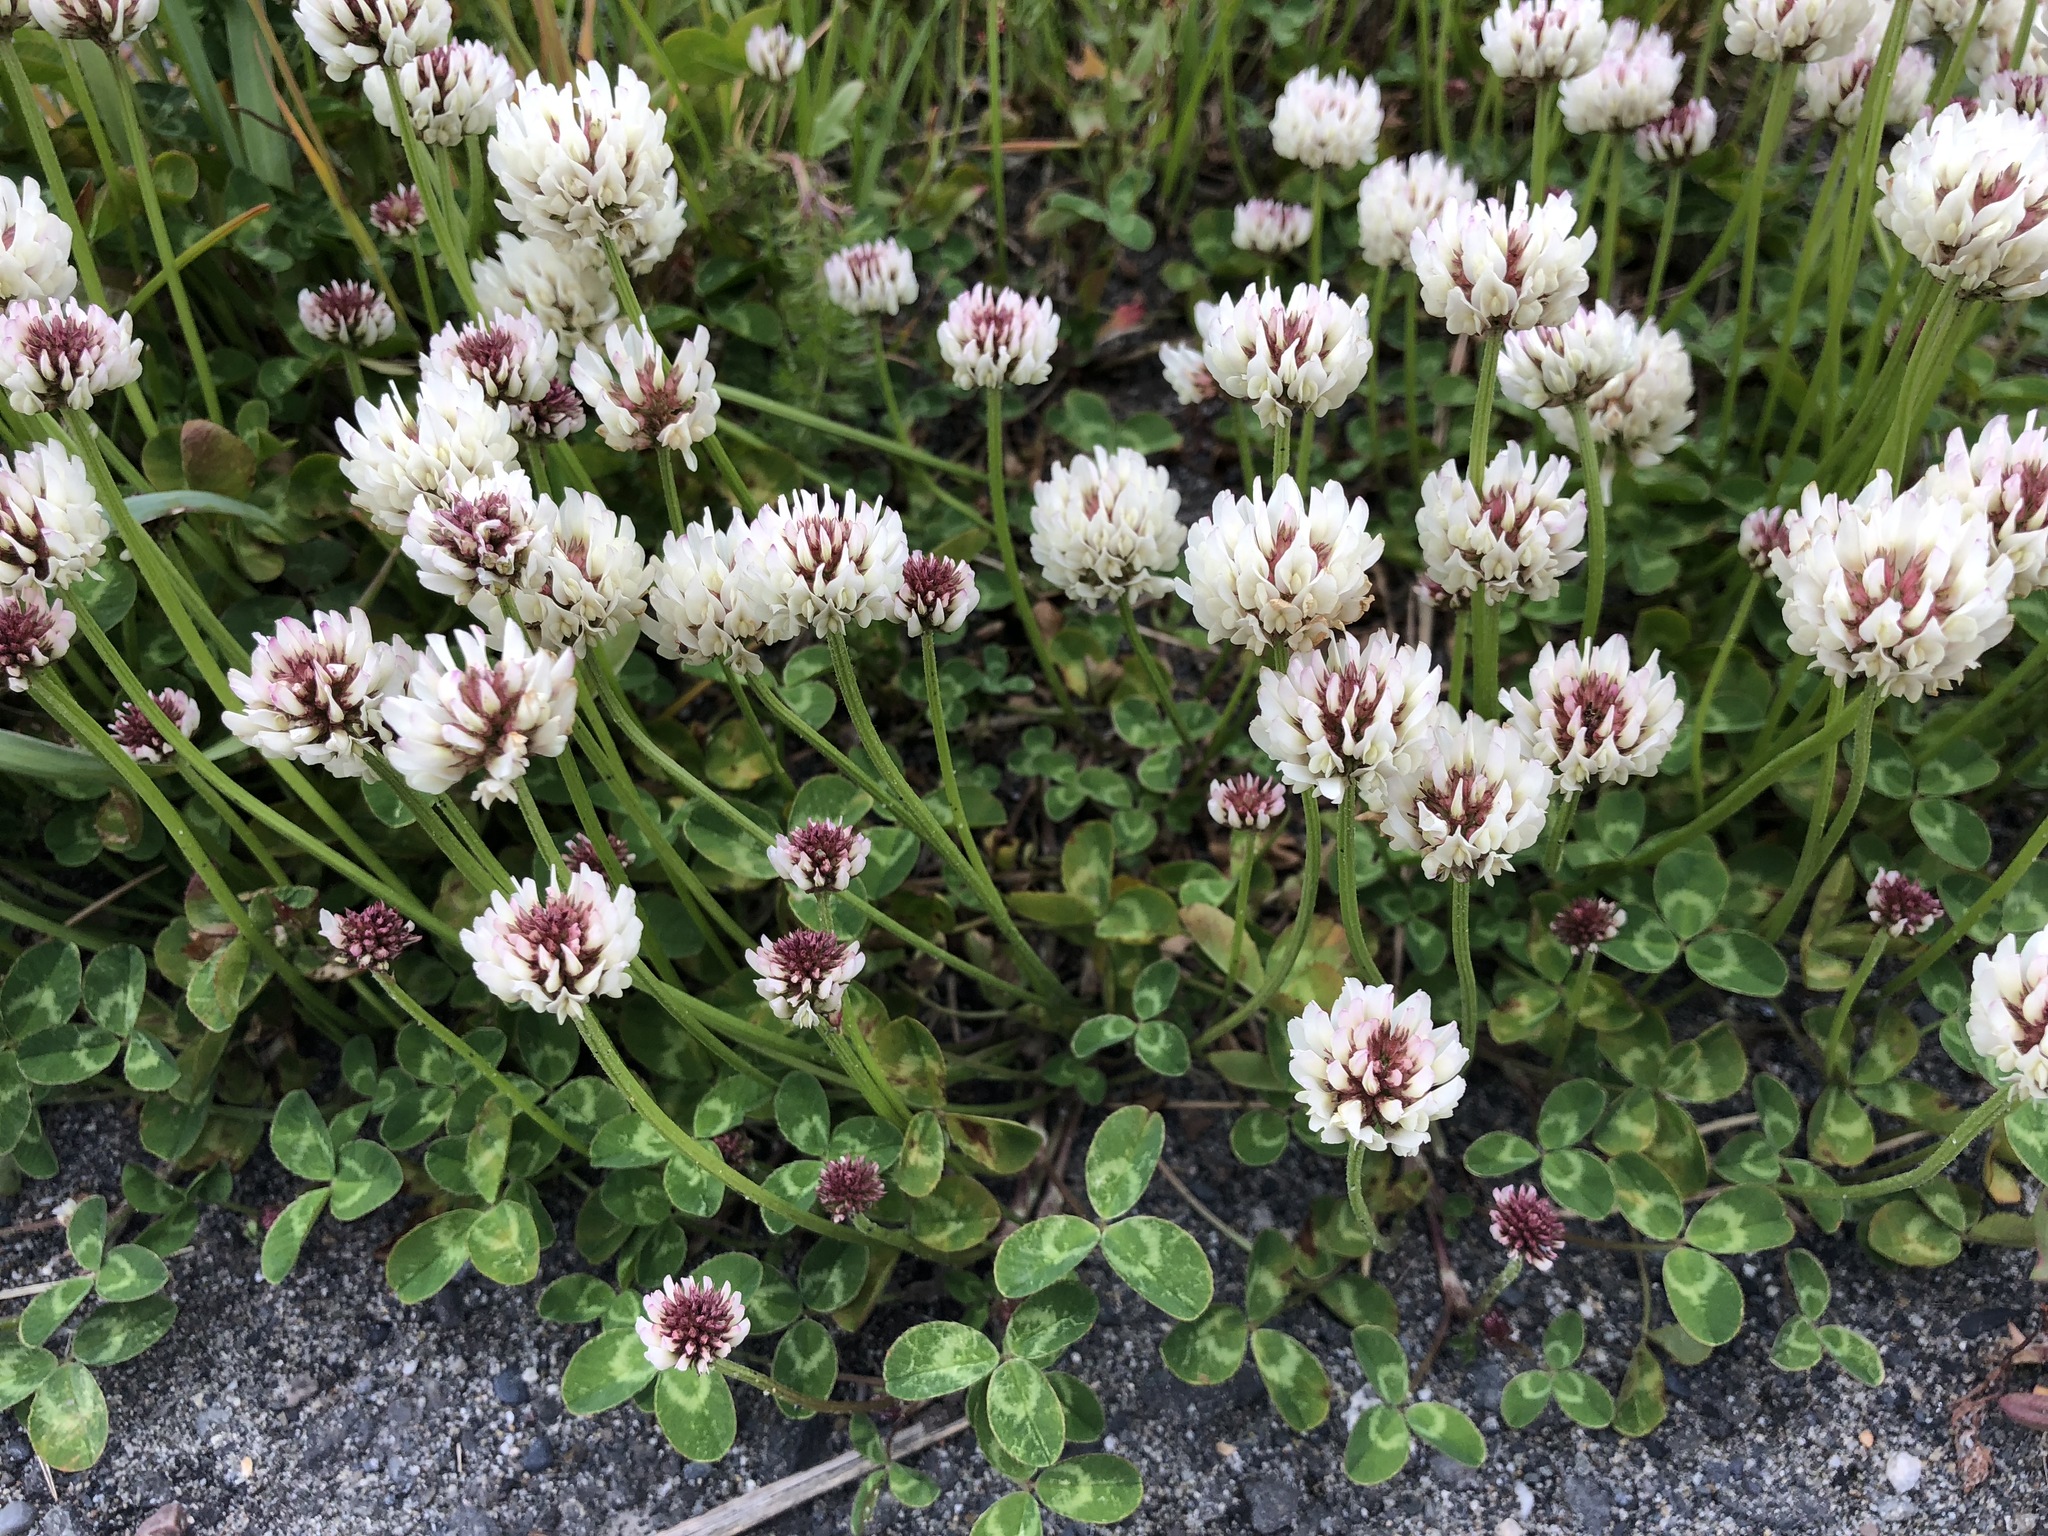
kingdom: Plantae
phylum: Tracheophyta
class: Magnoliopsida
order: Fabales
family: Fabaceae
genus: Trifolium
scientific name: Trifolium repens
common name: White clover
